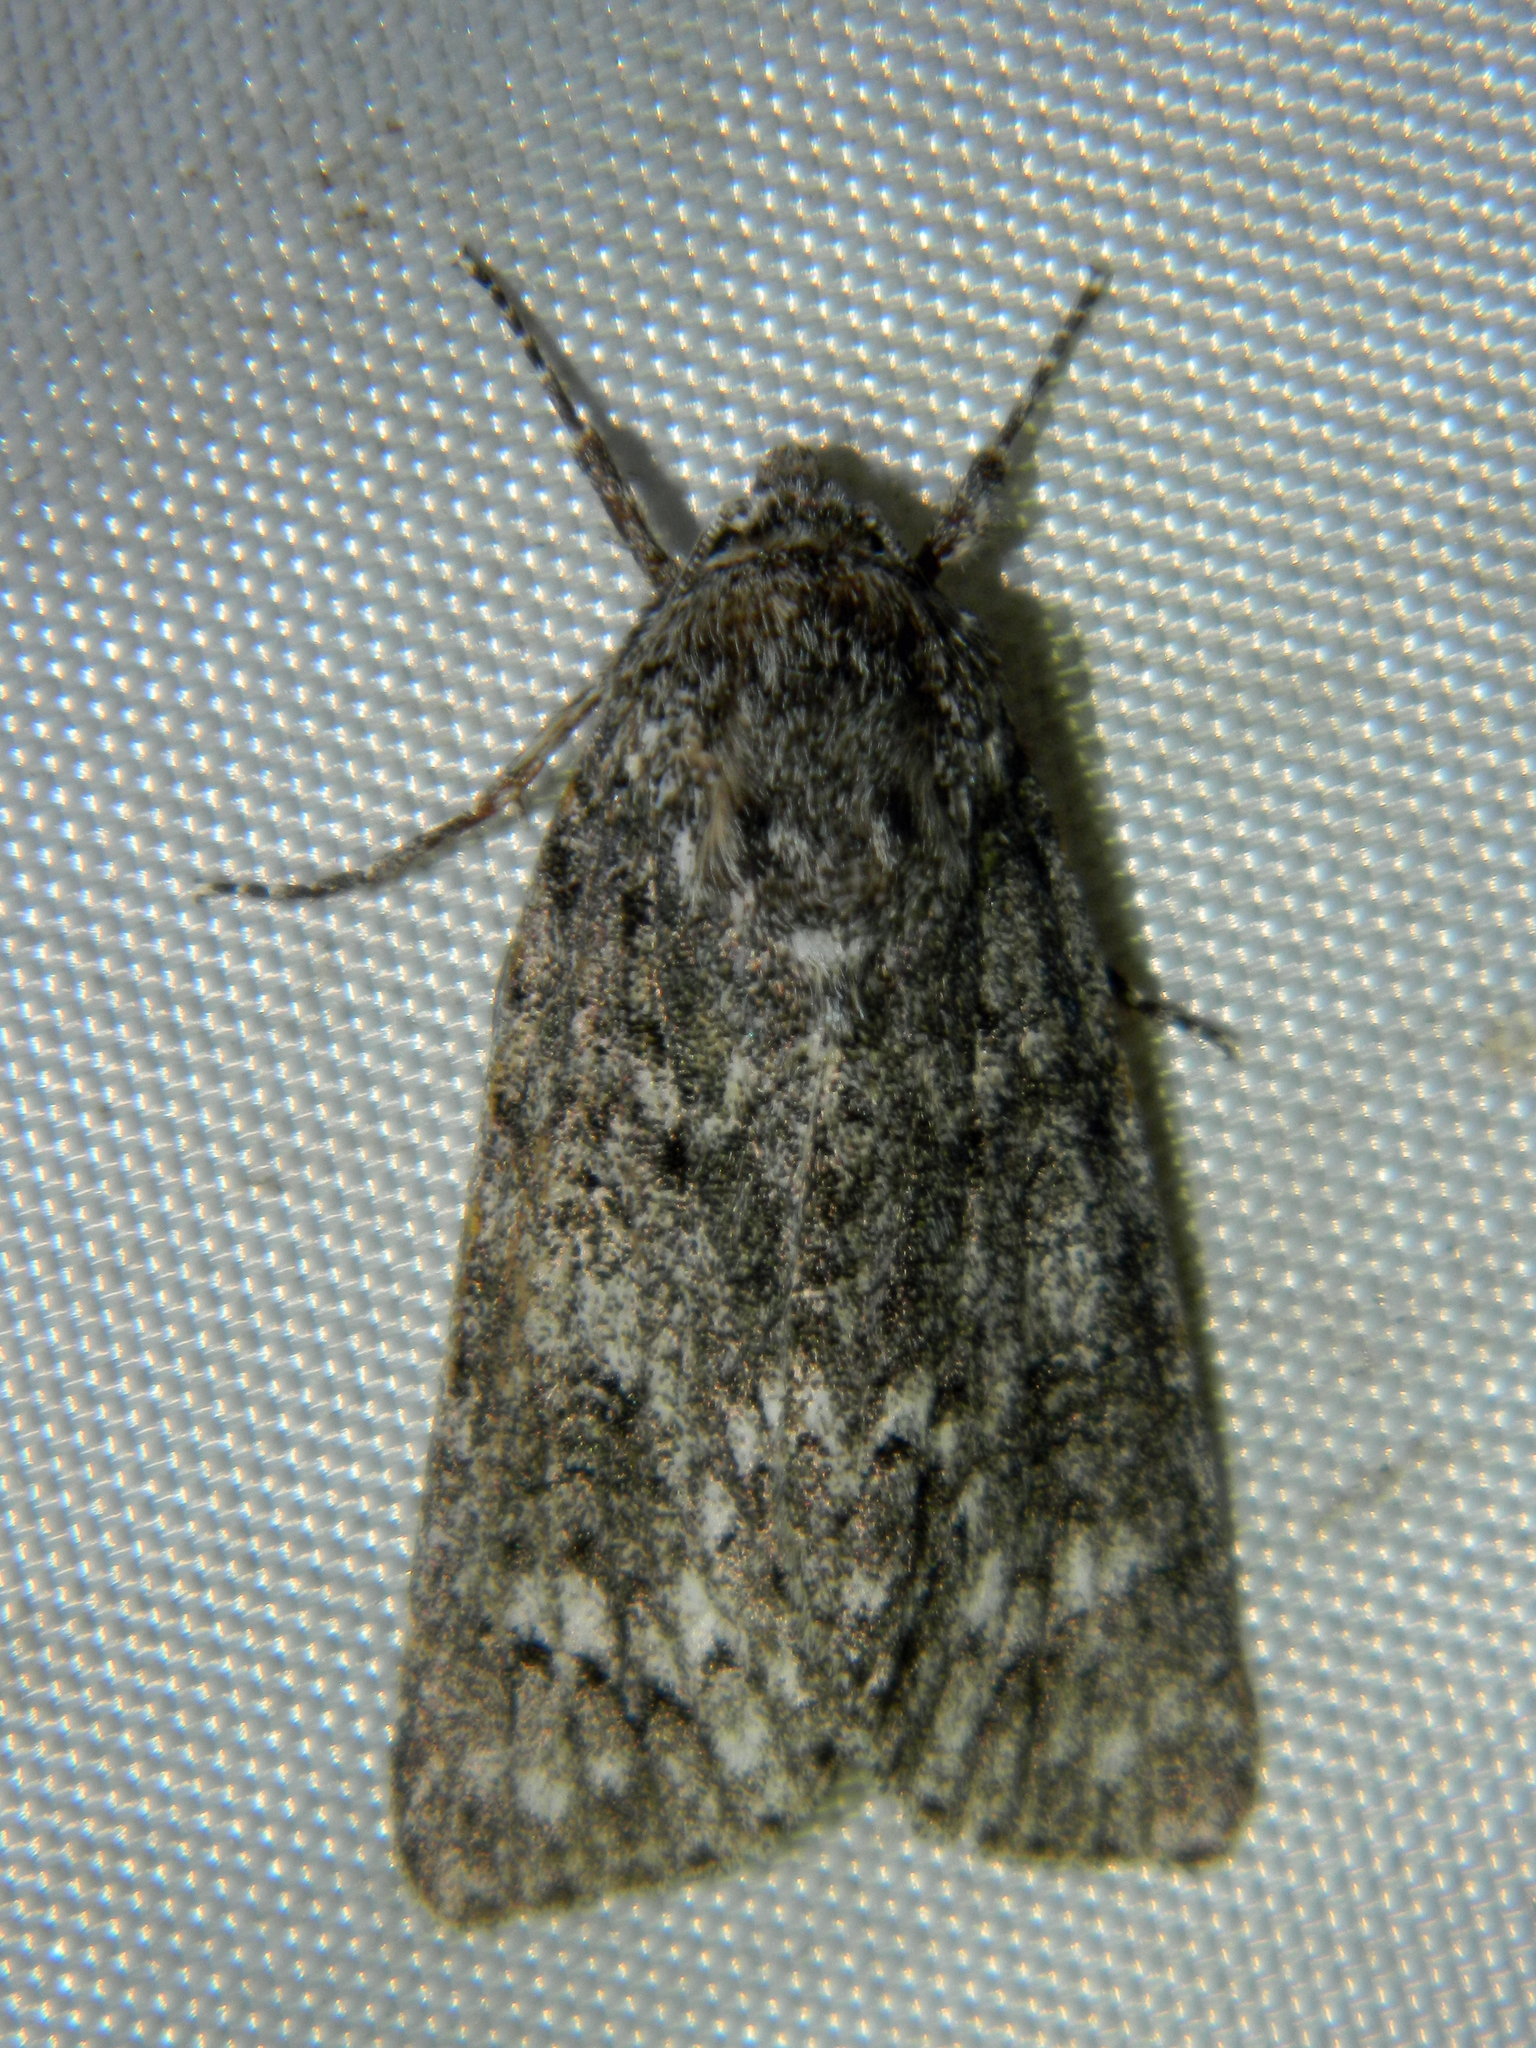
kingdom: Animalia
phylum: Arthropoda
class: Insecta
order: Lepidoptera
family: Noctuidae
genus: Acronicta
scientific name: Acronicta impleta
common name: Powdered dagger
